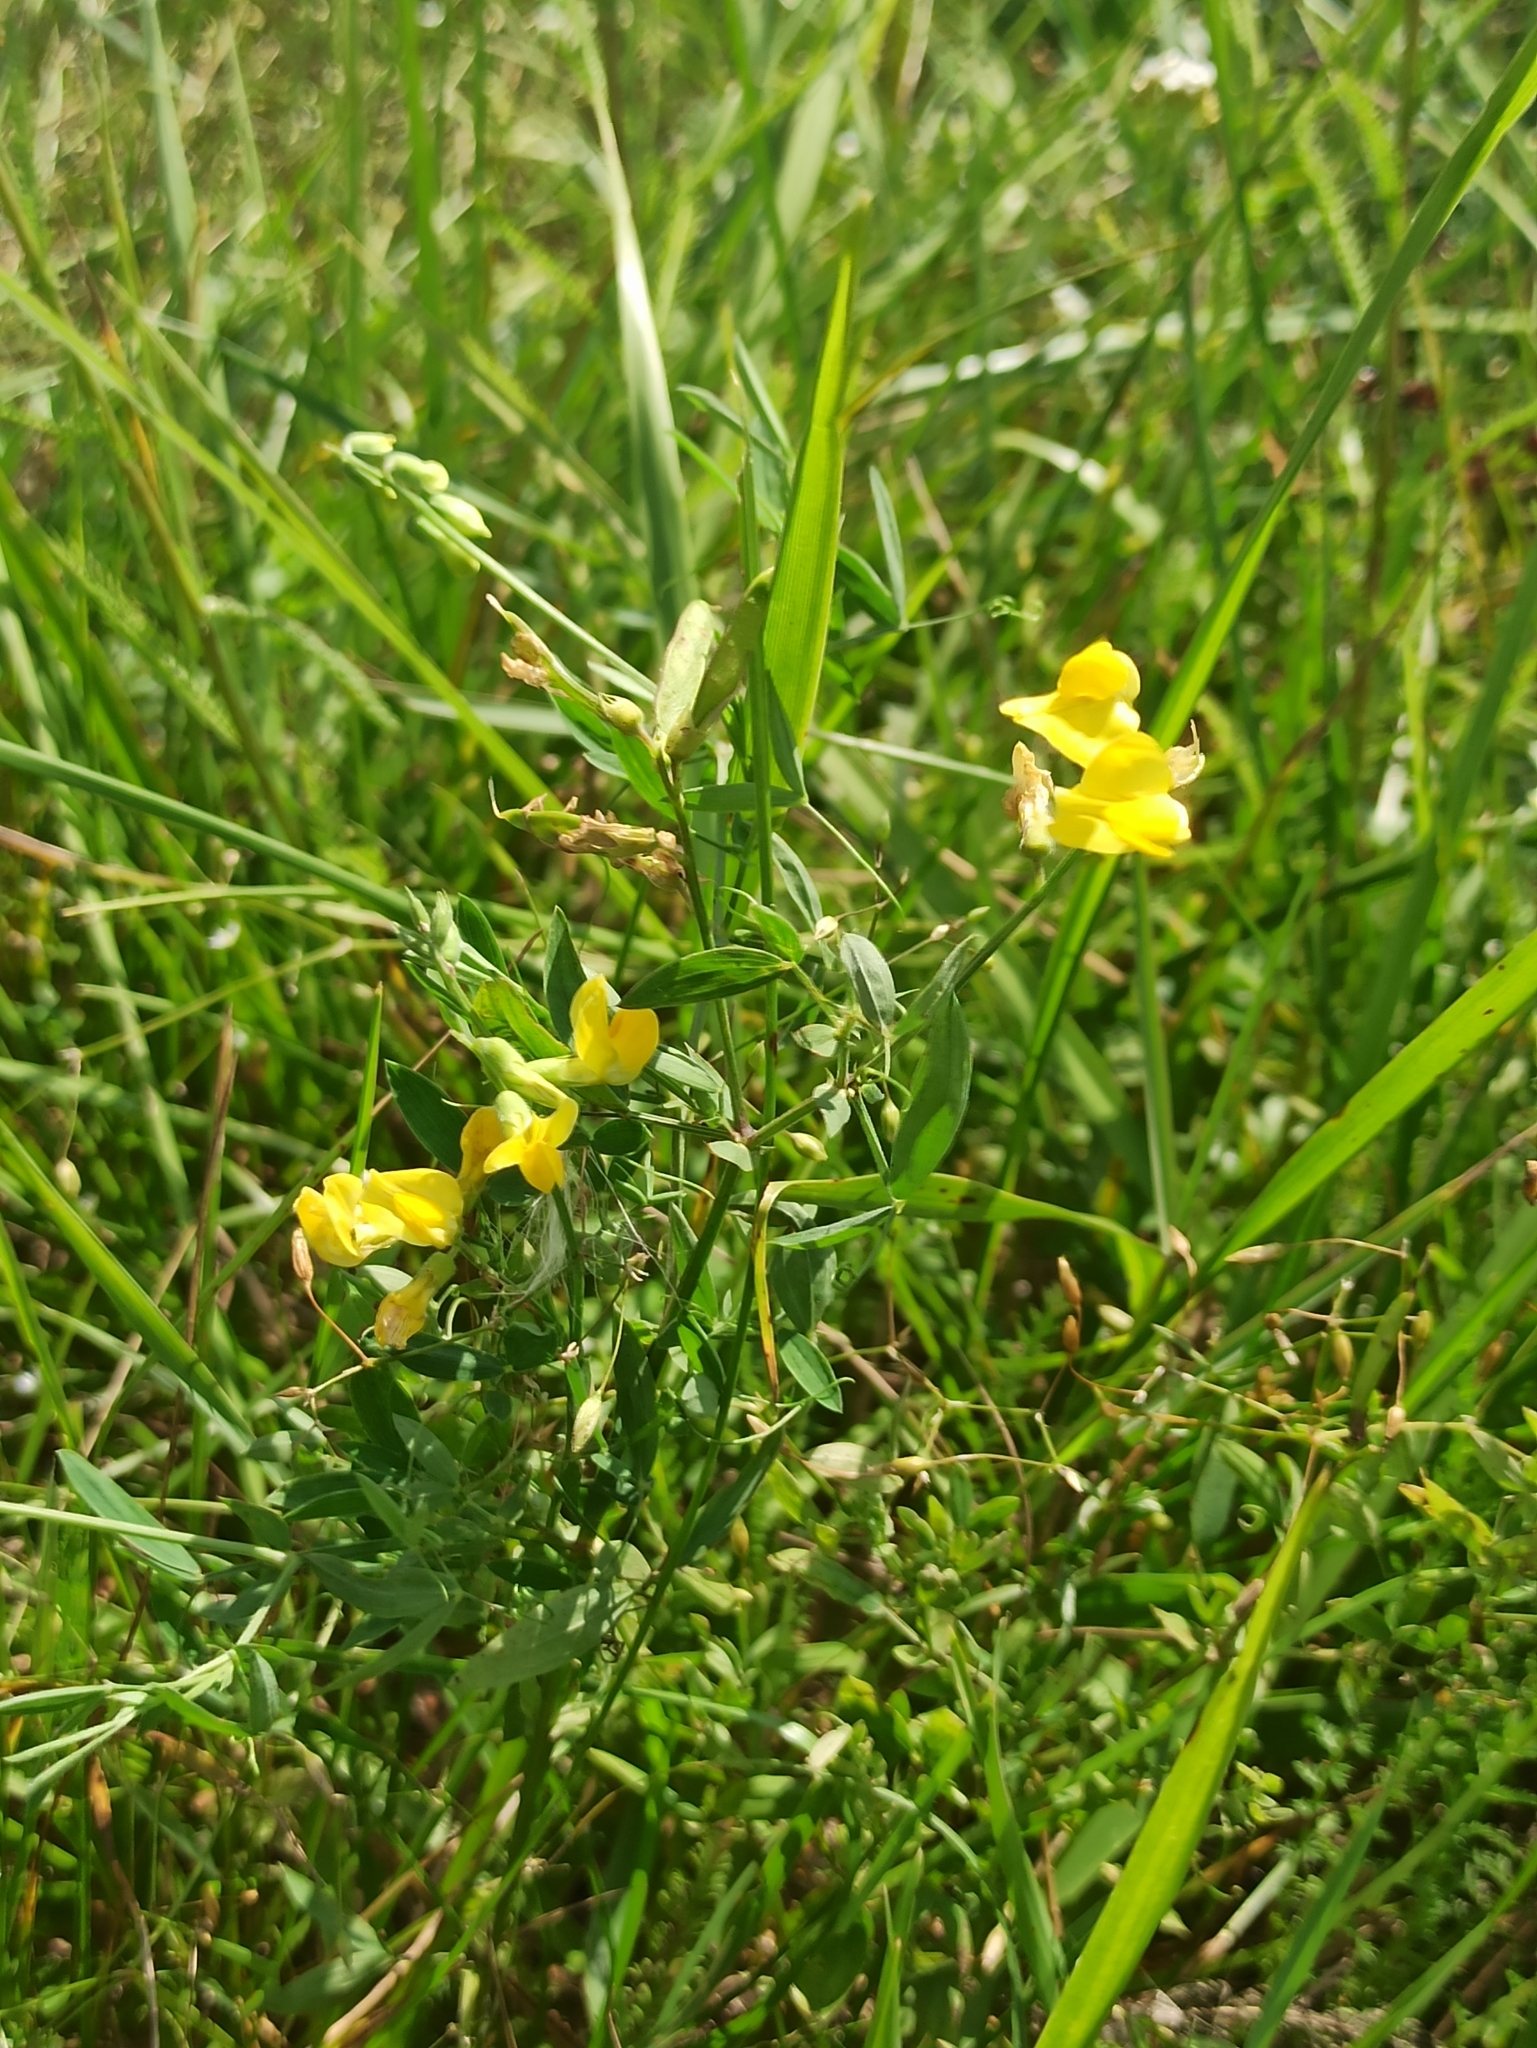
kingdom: Plantae
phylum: Tracheophyta
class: Magnoliopsida
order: Fabales
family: Fabaceae
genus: Lathyrus
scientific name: Lathyrus pratensis
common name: Meadow vetchling
